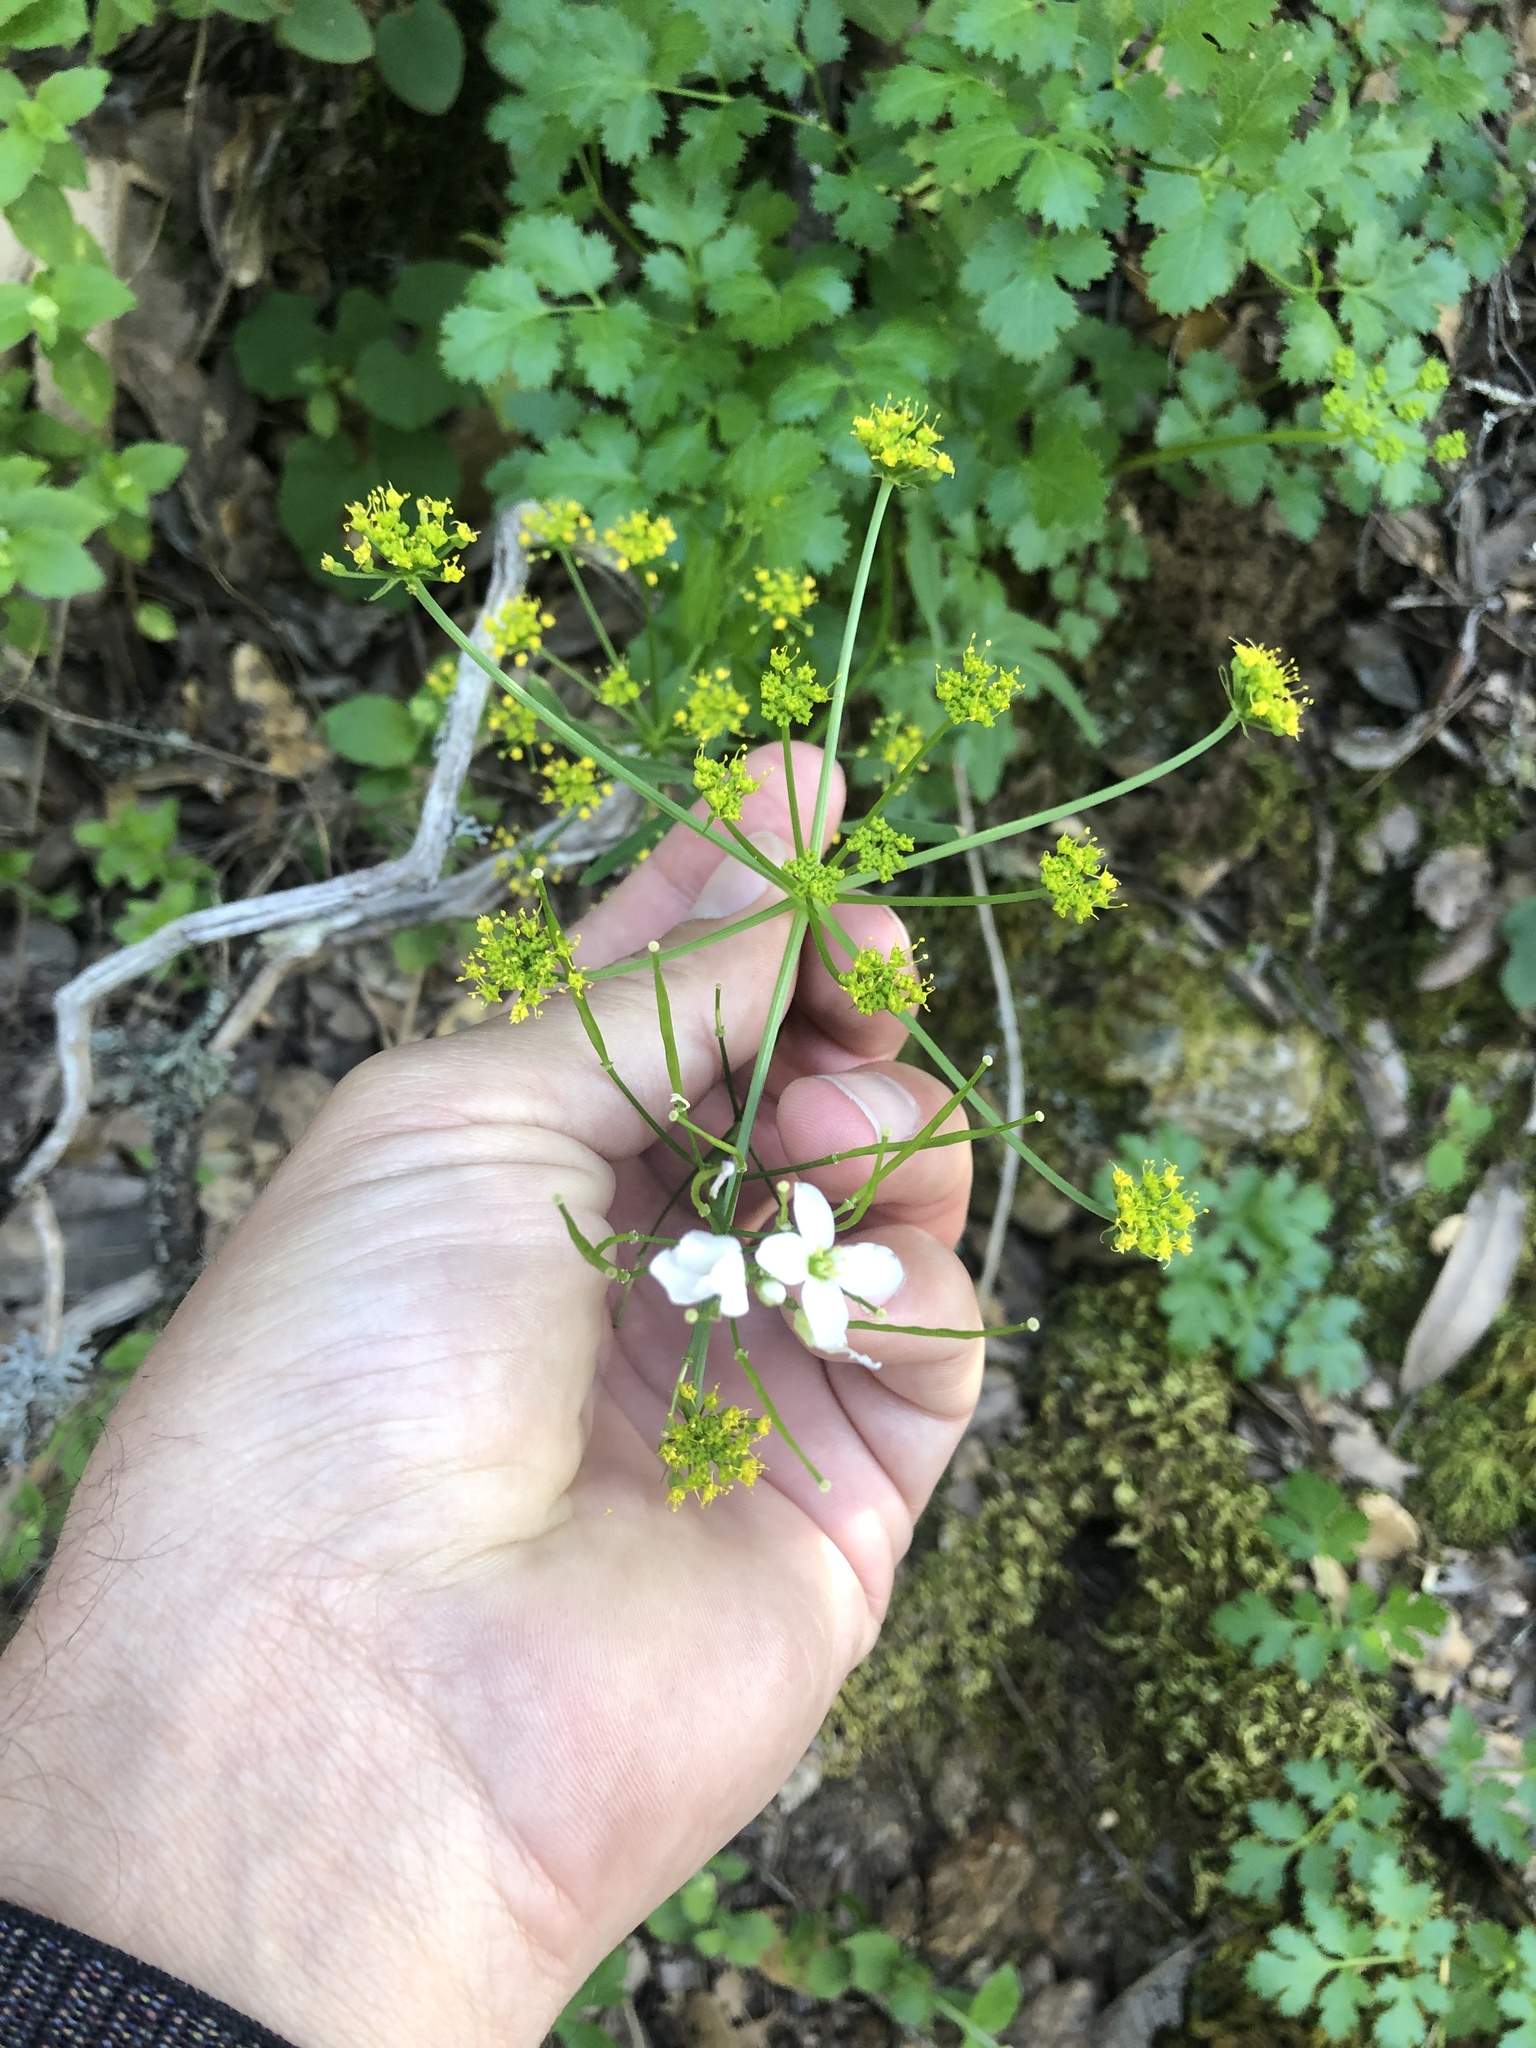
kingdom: Plantae
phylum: Tracheophyta
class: Magnoliopsida
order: Apiales
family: Apiaceae
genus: Tauschia
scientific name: Tauschia kelloggii
